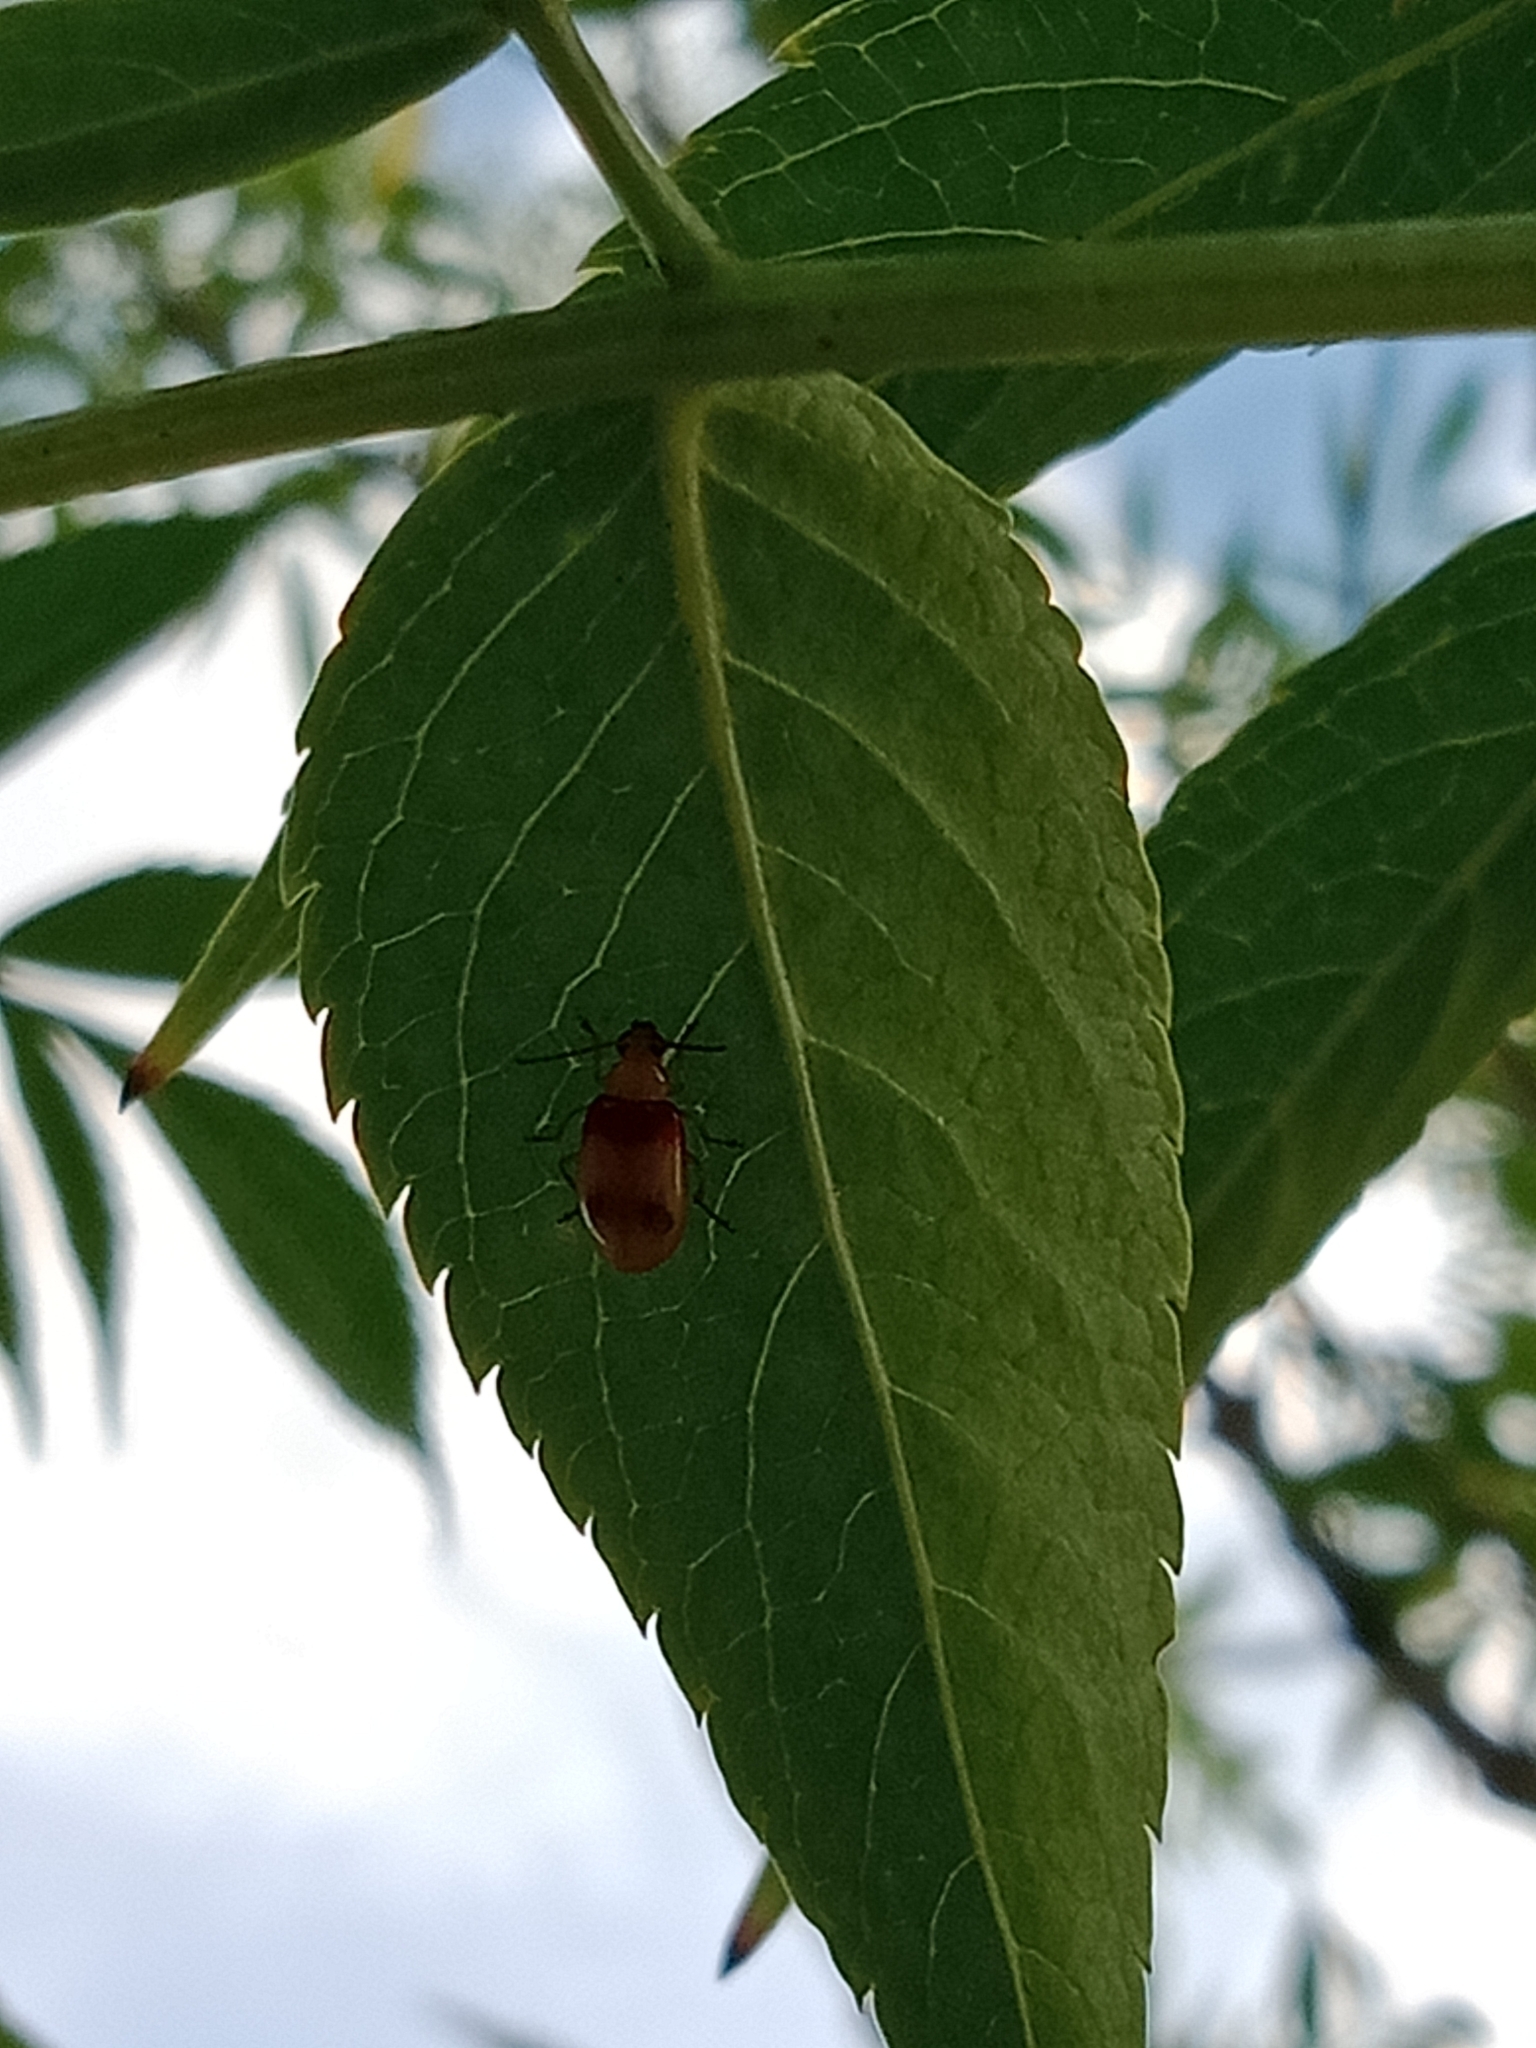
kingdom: Animalia
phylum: Arthropoda
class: Insecta
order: Coleoptera
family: Chrysomelidae
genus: Monolepta
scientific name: Monolepta
